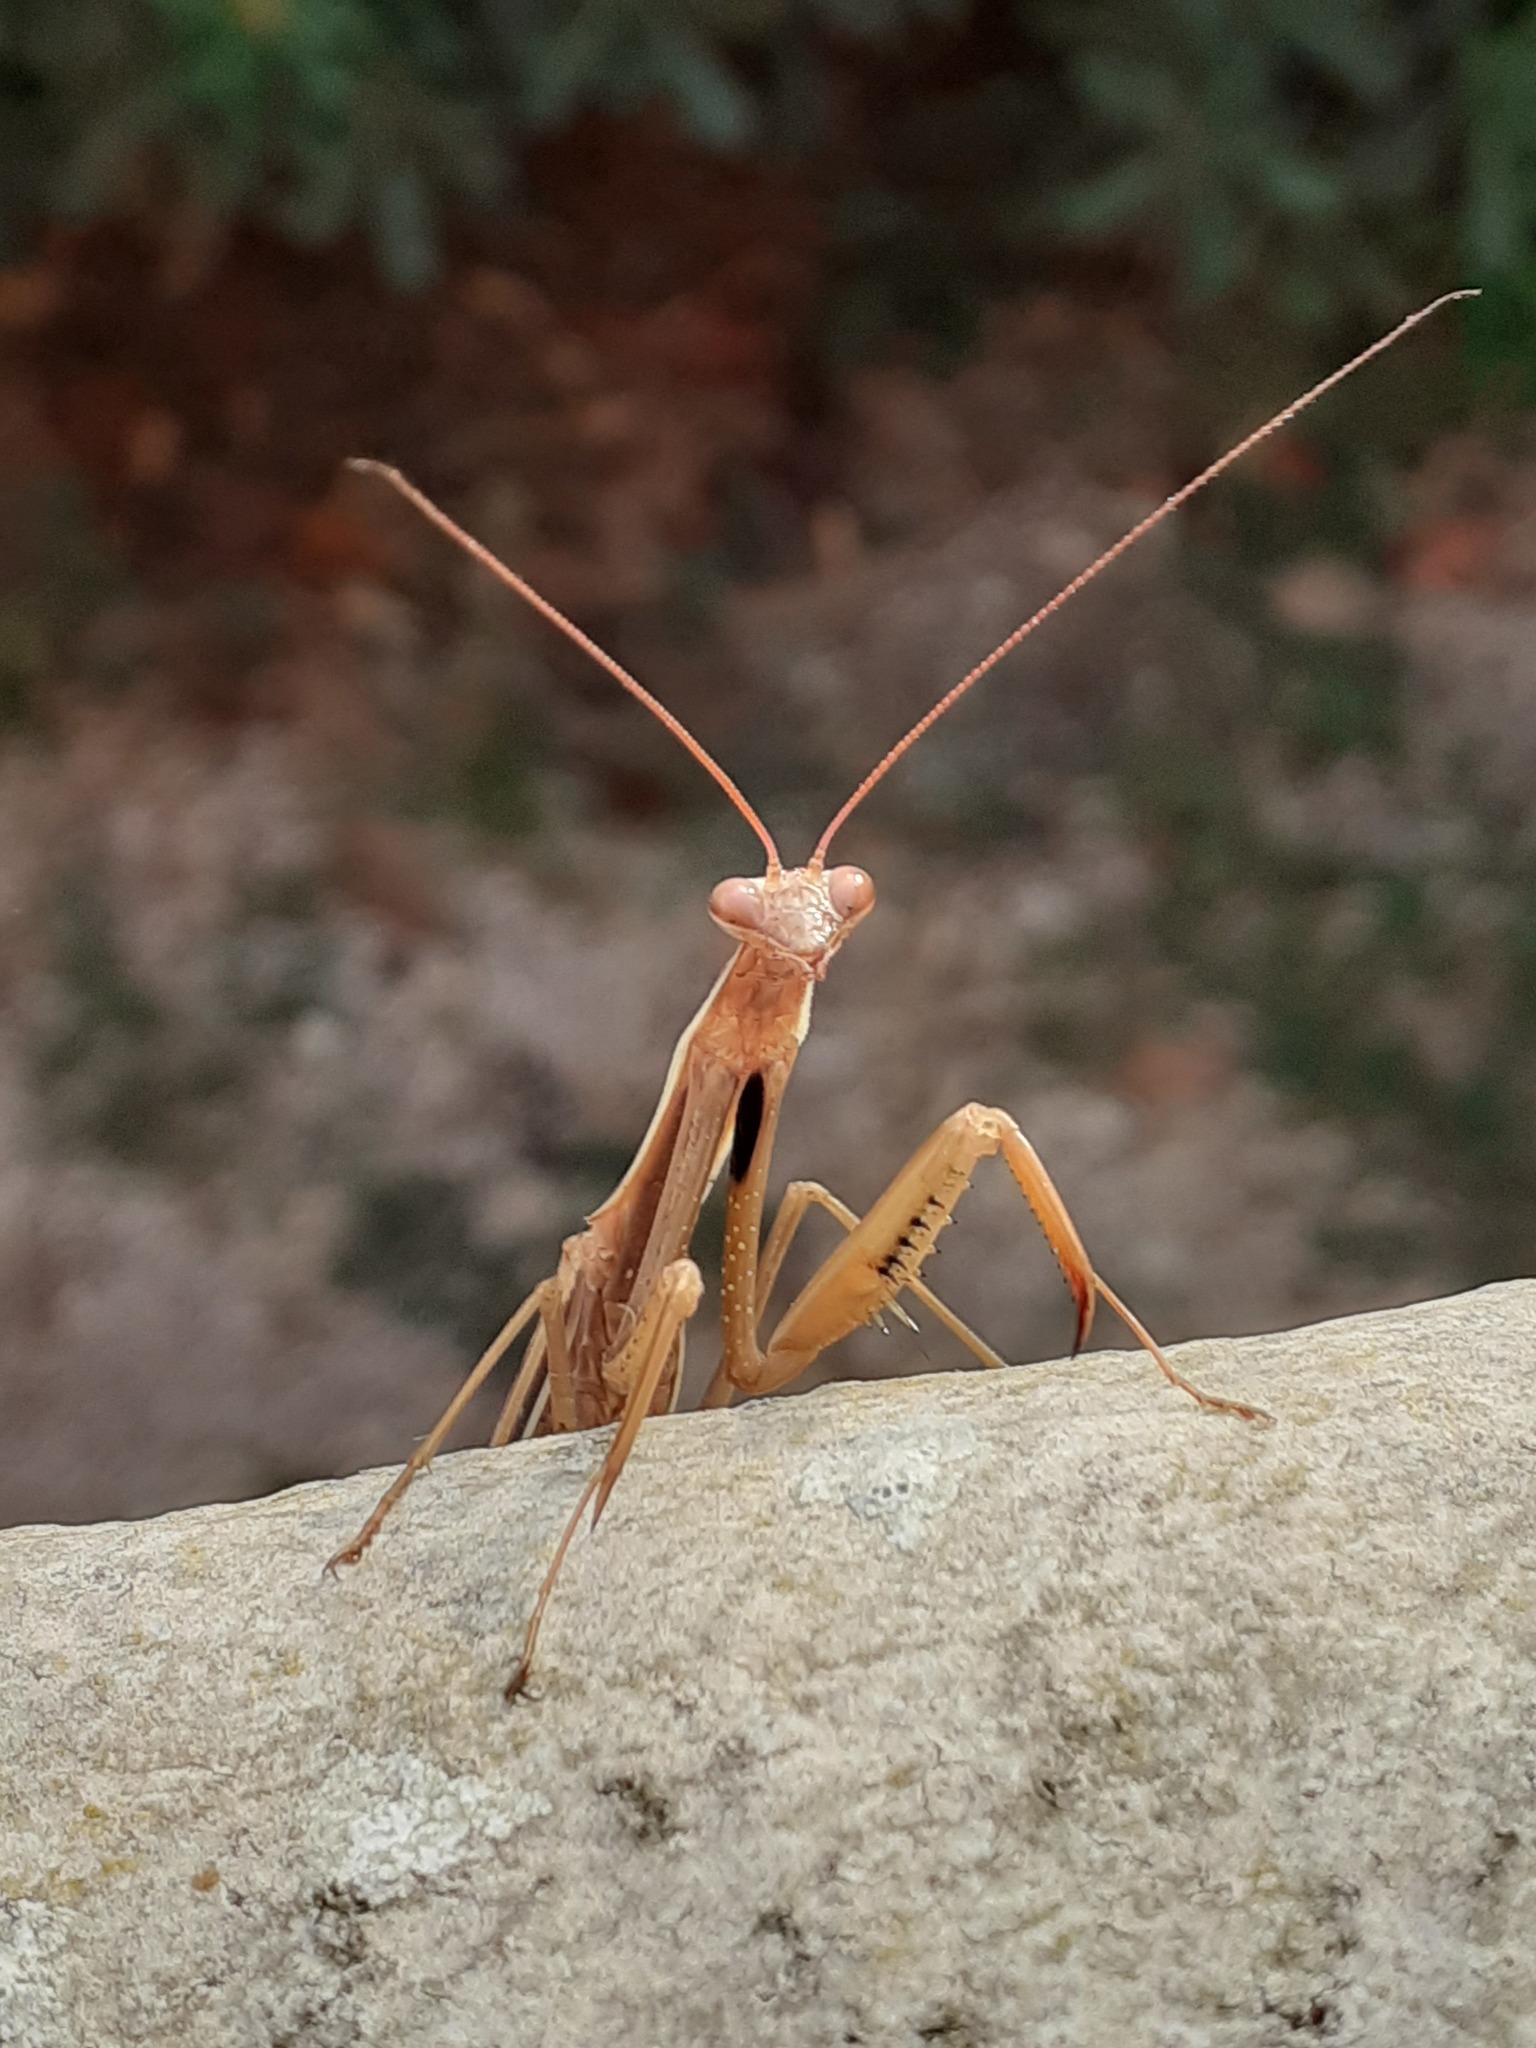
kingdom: Animalia
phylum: Arthropoda
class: Insecta
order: Mantodea
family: Mantidae
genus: Mantis
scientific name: Mantis religiosa
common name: Praying mantis
